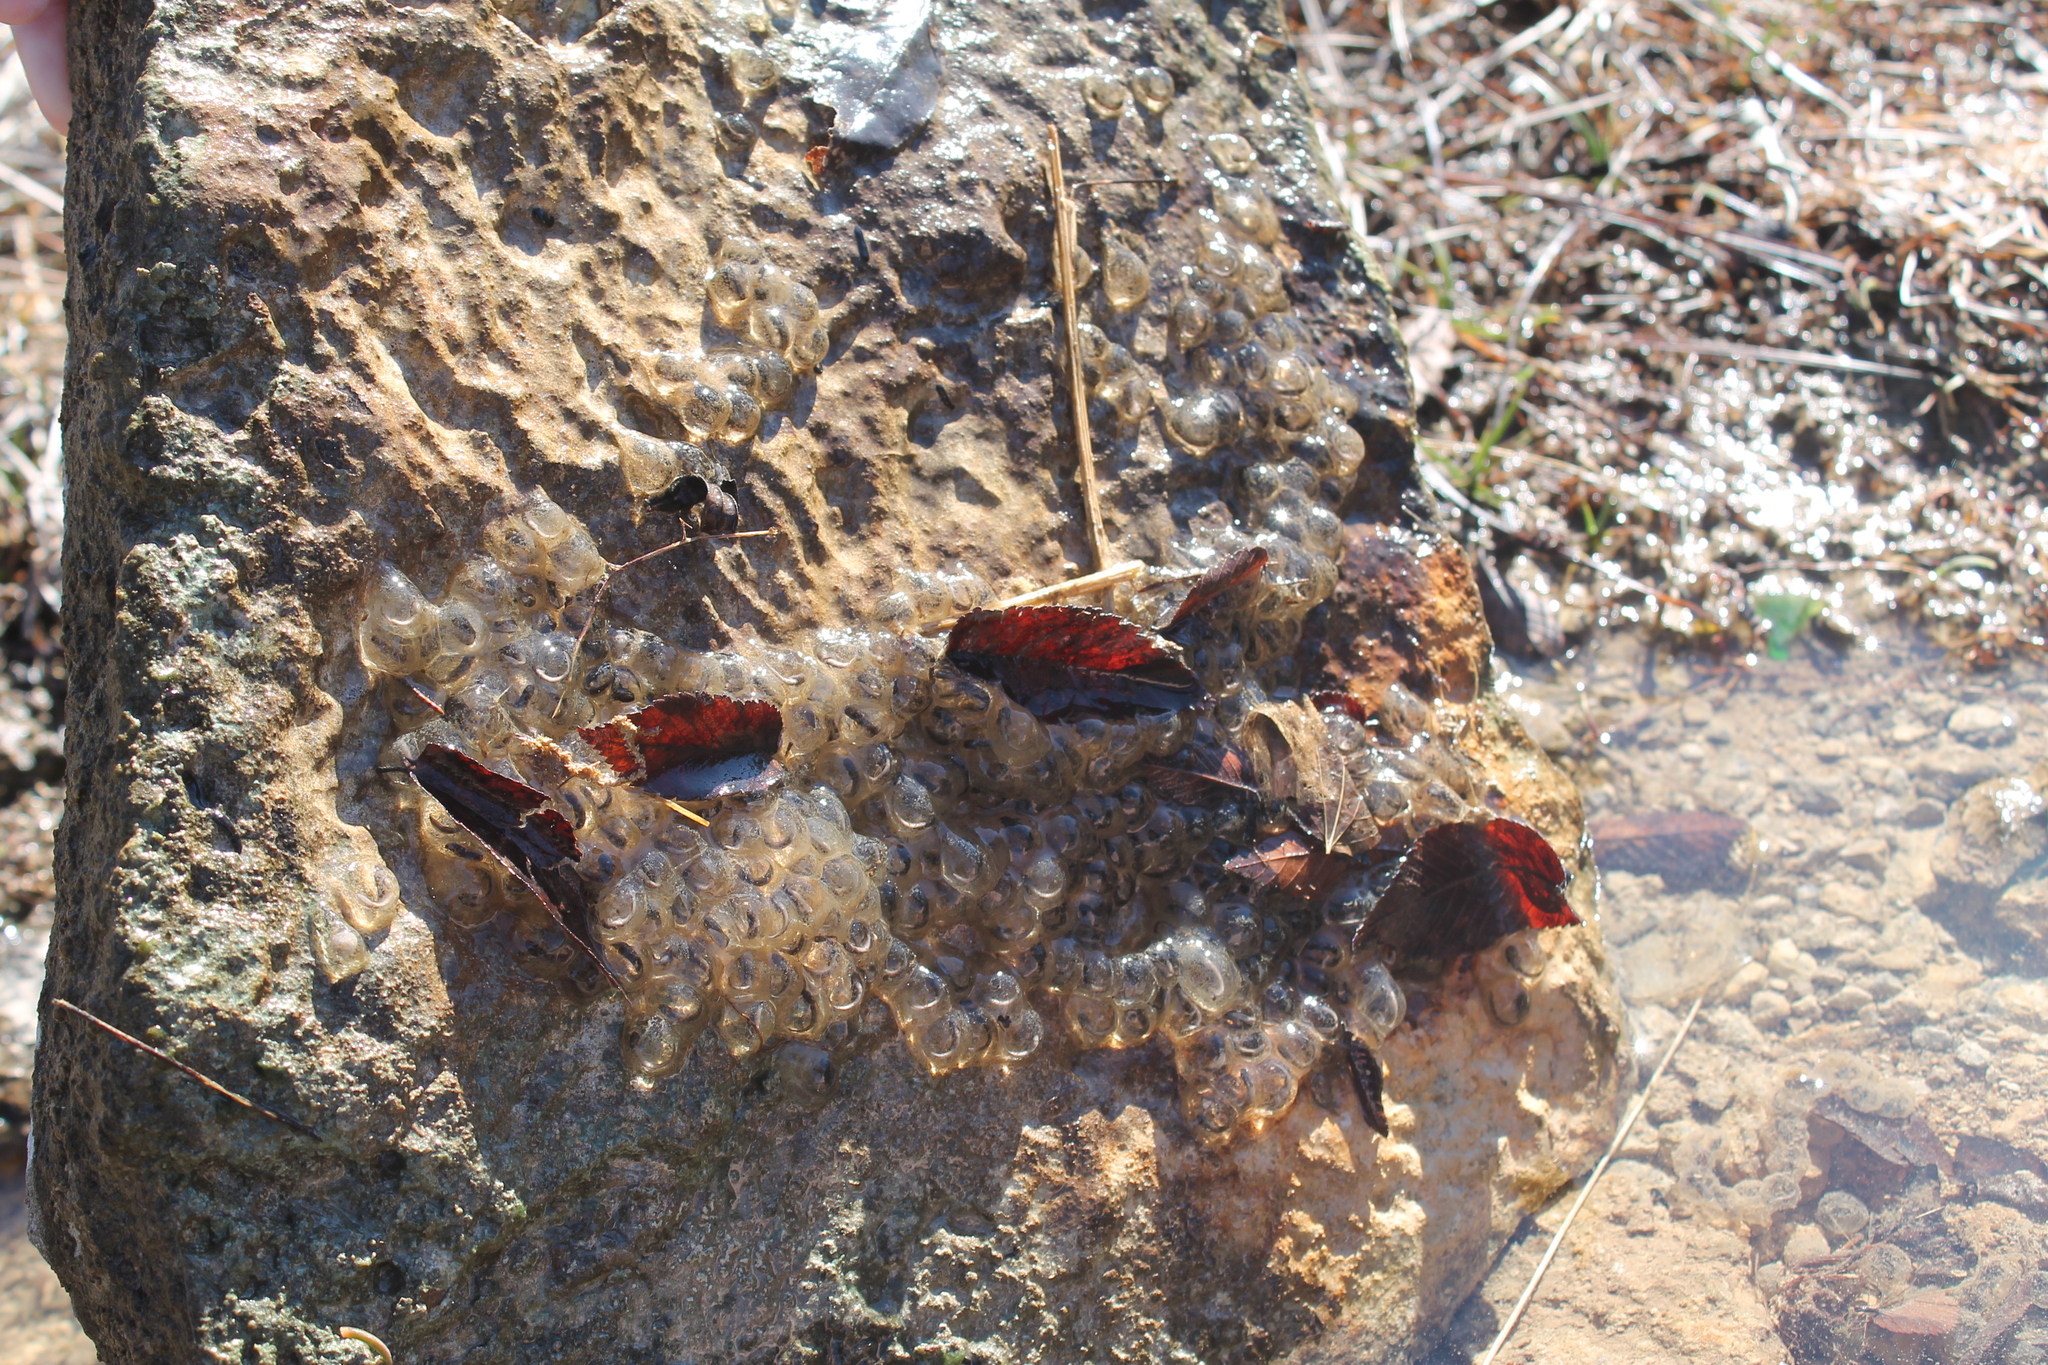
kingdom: Animalia
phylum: Chordata
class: Amphibia
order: Caudata
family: Ambystomatidae
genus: Ambystoma
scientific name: Ambystoma barbouri
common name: Streamside salamander
